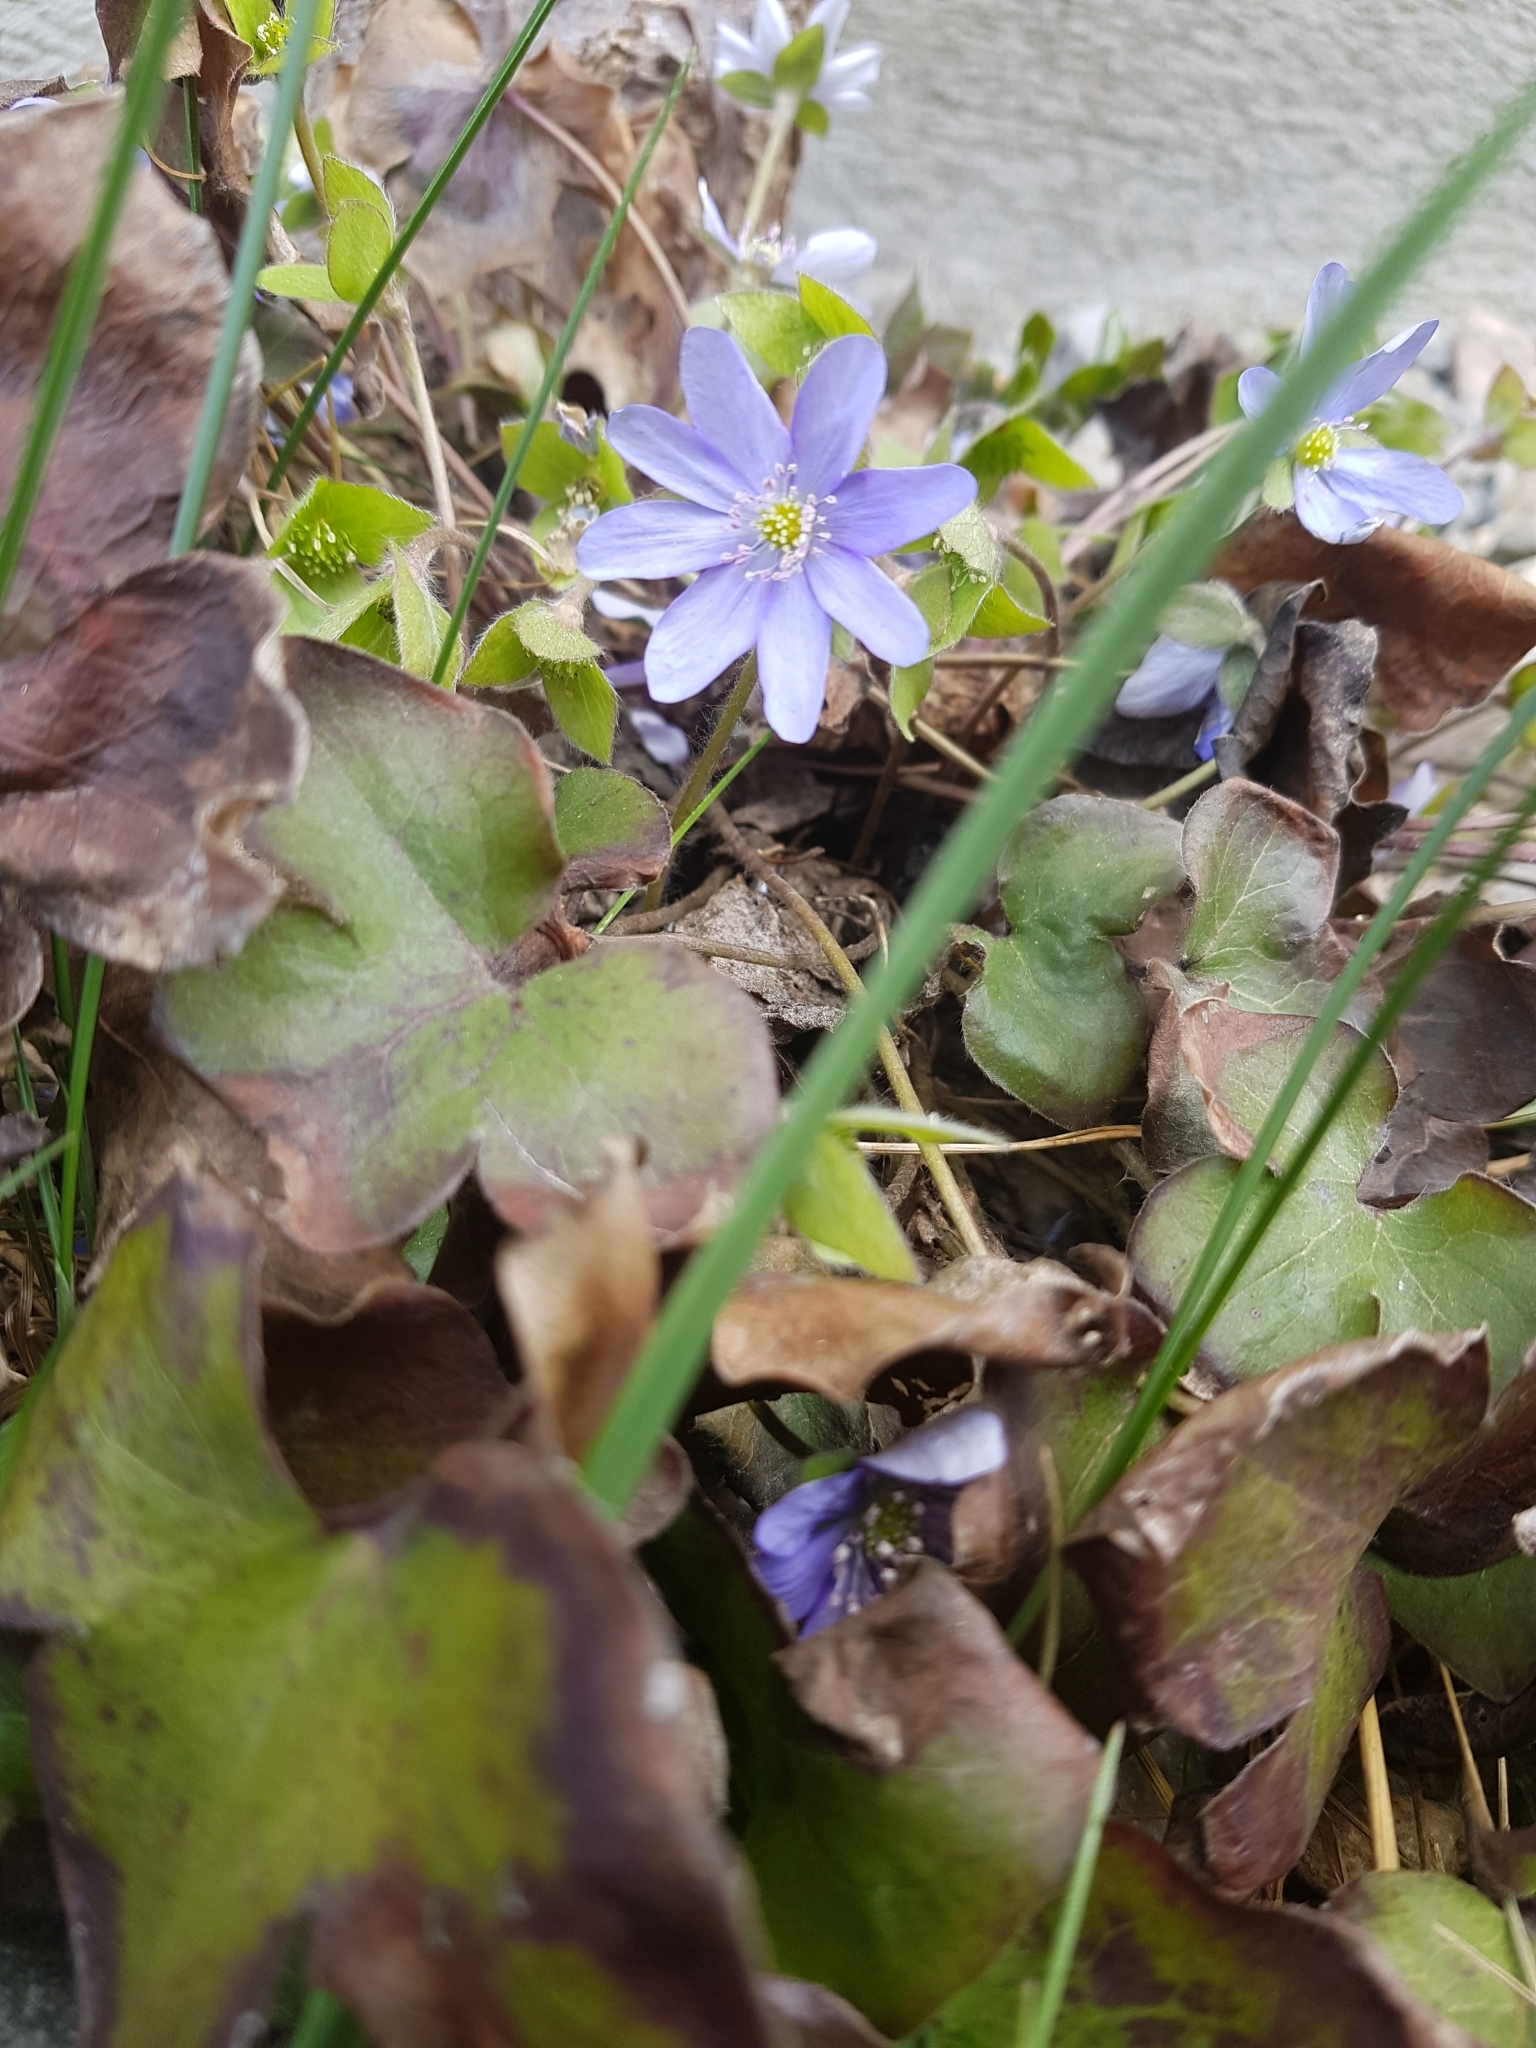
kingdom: Plantae
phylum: Tracheophyta
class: Magnoliopsida
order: Ranunculales
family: Ranunculaceae
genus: Hepatica
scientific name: Hepatica nobilis
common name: Liverleaf
